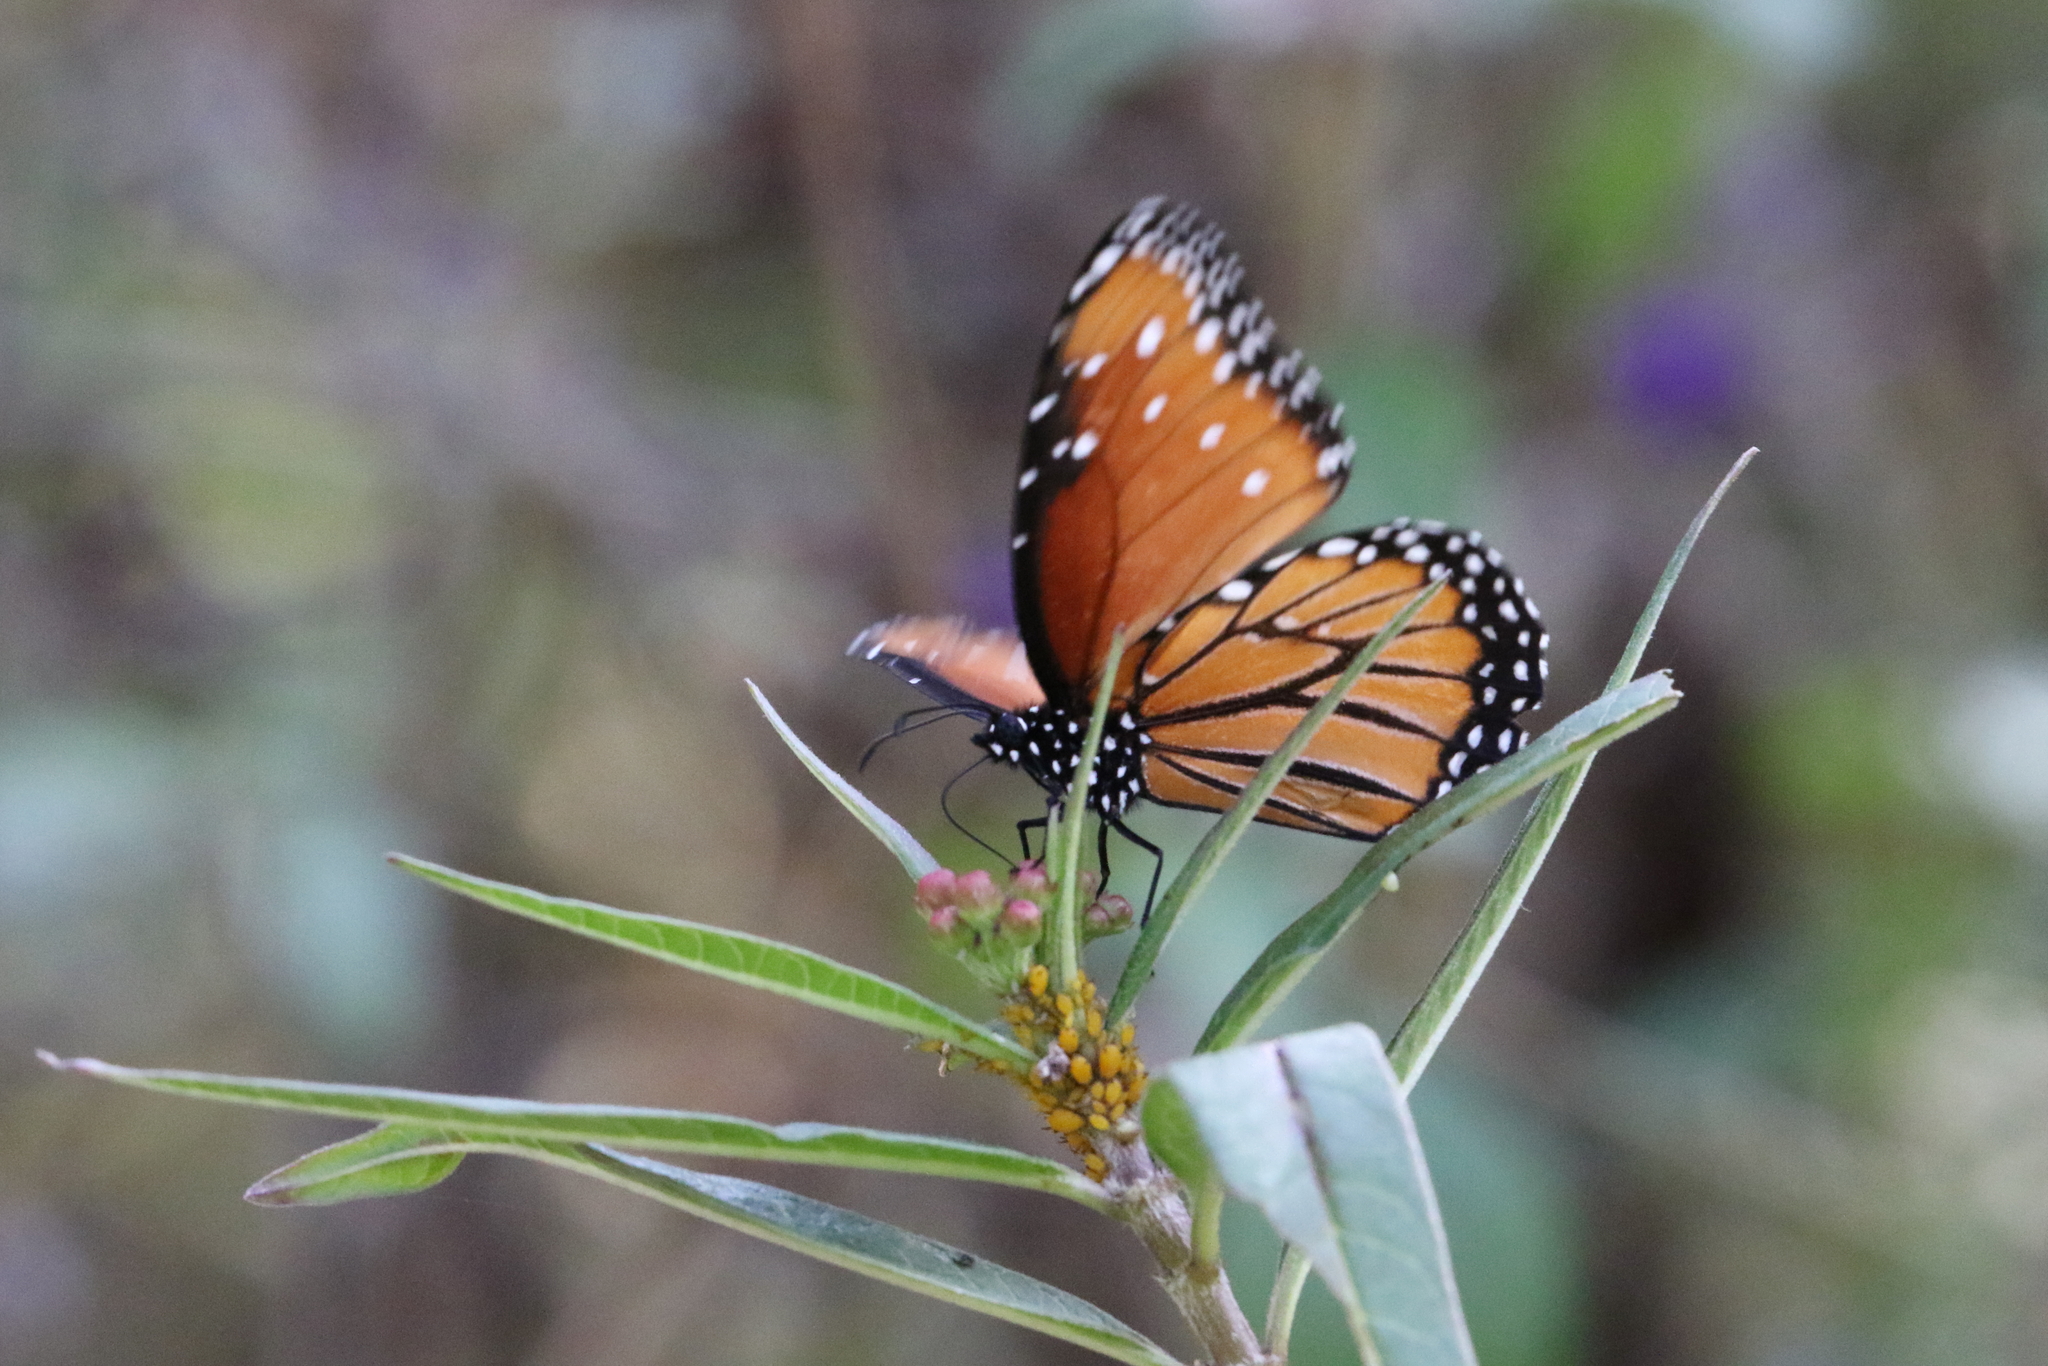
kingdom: Animalia
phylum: Arthropoda
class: Insecta
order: Lepidoptera
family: Nymphalidae
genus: Danaus
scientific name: Danaus gilippus
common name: Queen
